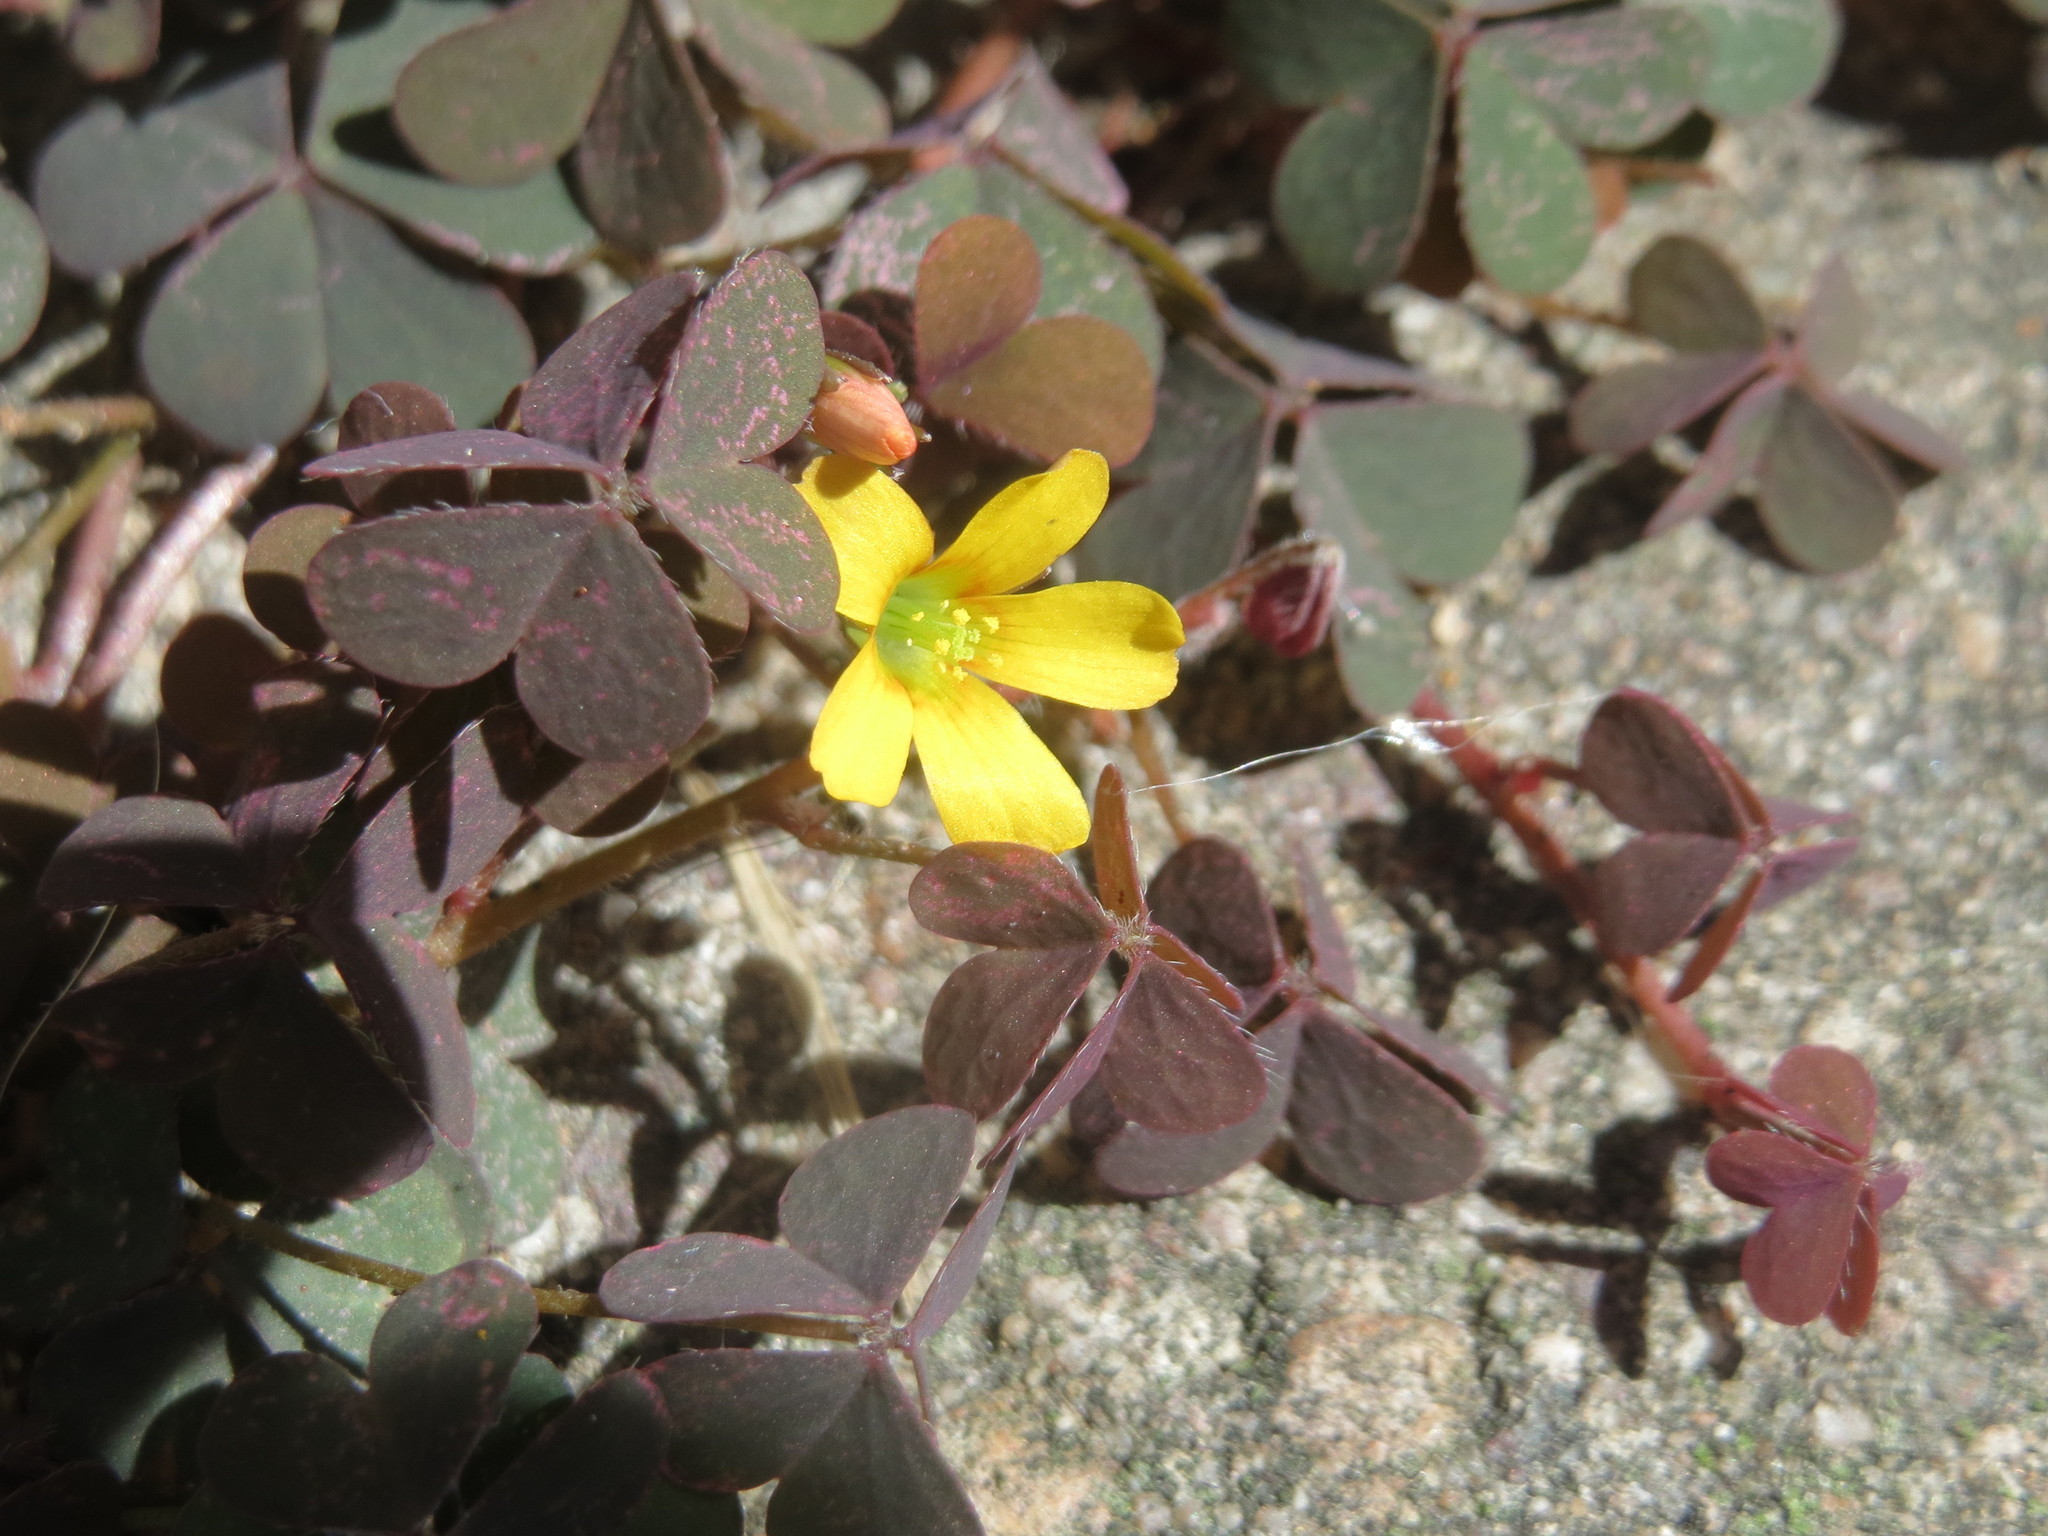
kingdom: Plantae
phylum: Tracheophyta
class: Magnoliopsida
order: Oxalidales
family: Oxalidaceae
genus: Oxalis
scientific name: Oxalis corniculata
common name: Procumbent yellow-sorrel
